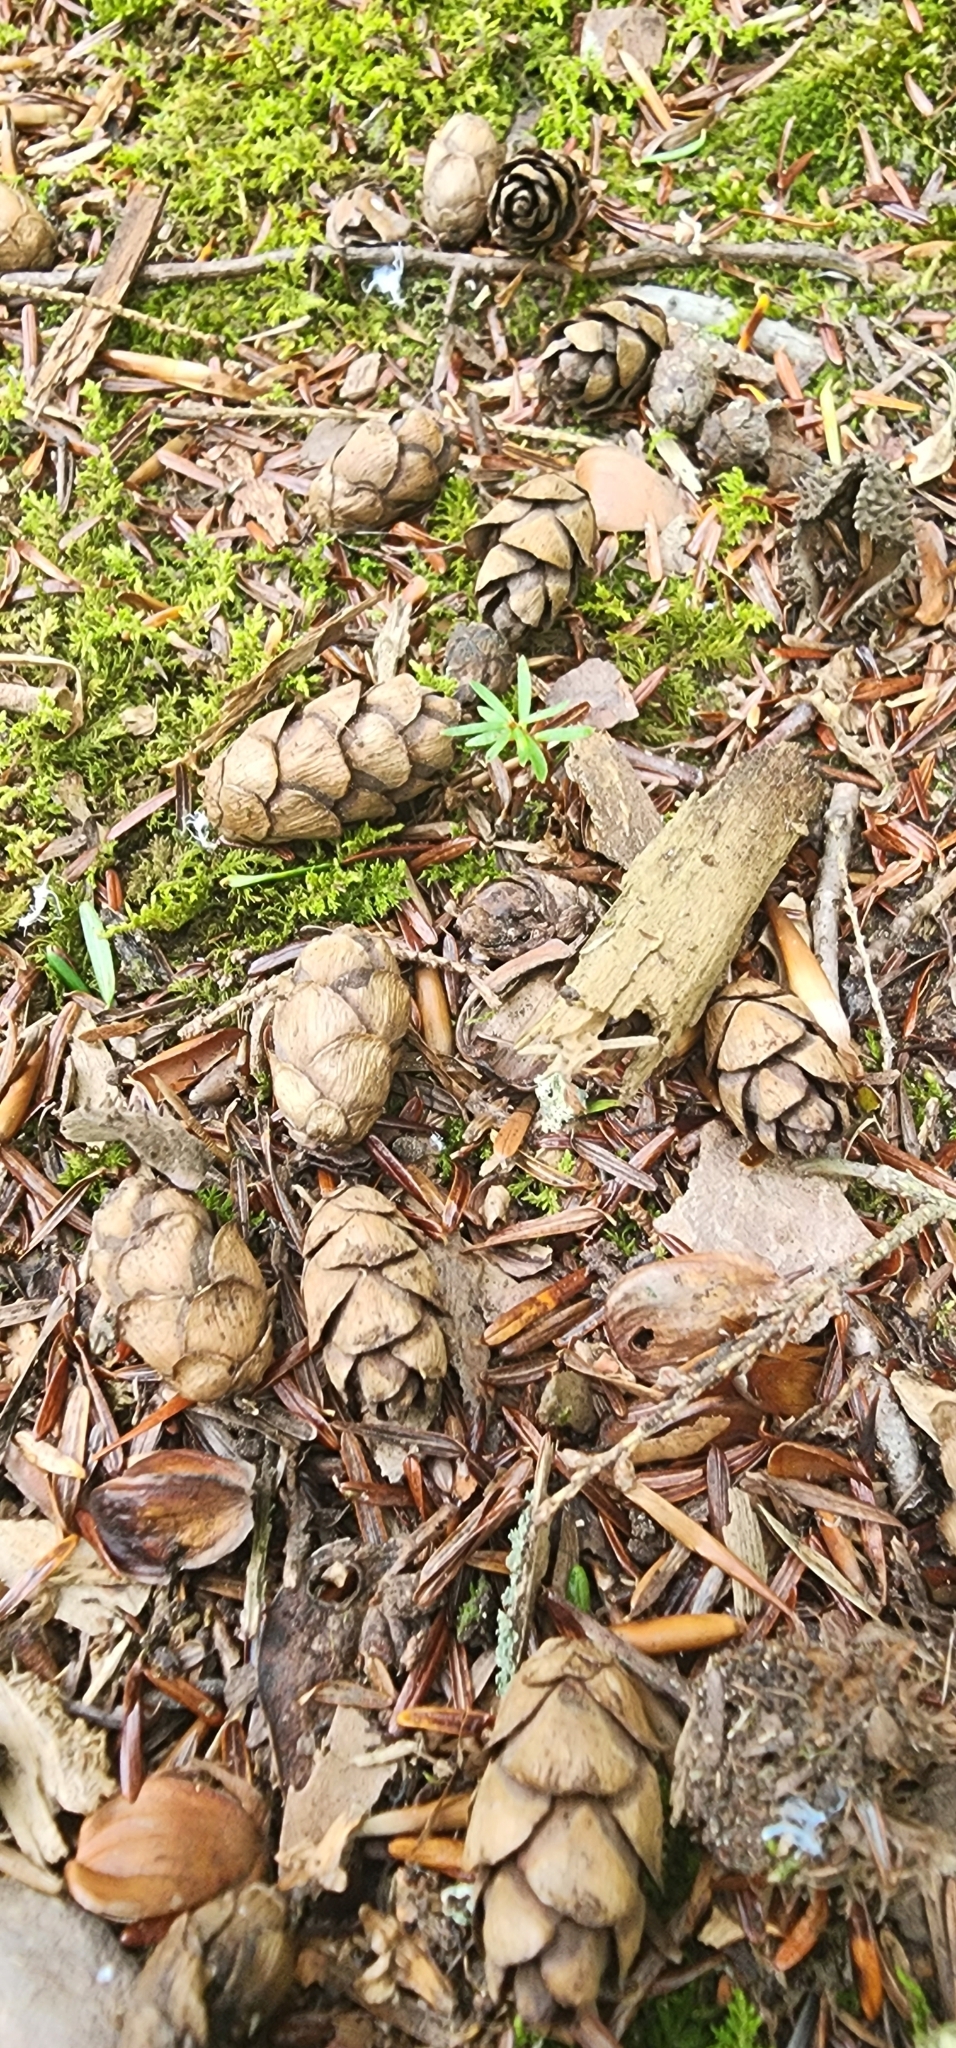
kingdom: Plantae
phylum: Tracheophyta
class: Pinopsida
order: Pinales
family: Pinaceae
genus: Tsuga
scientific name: Tsuga canadensis
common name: Eastern hemlock
